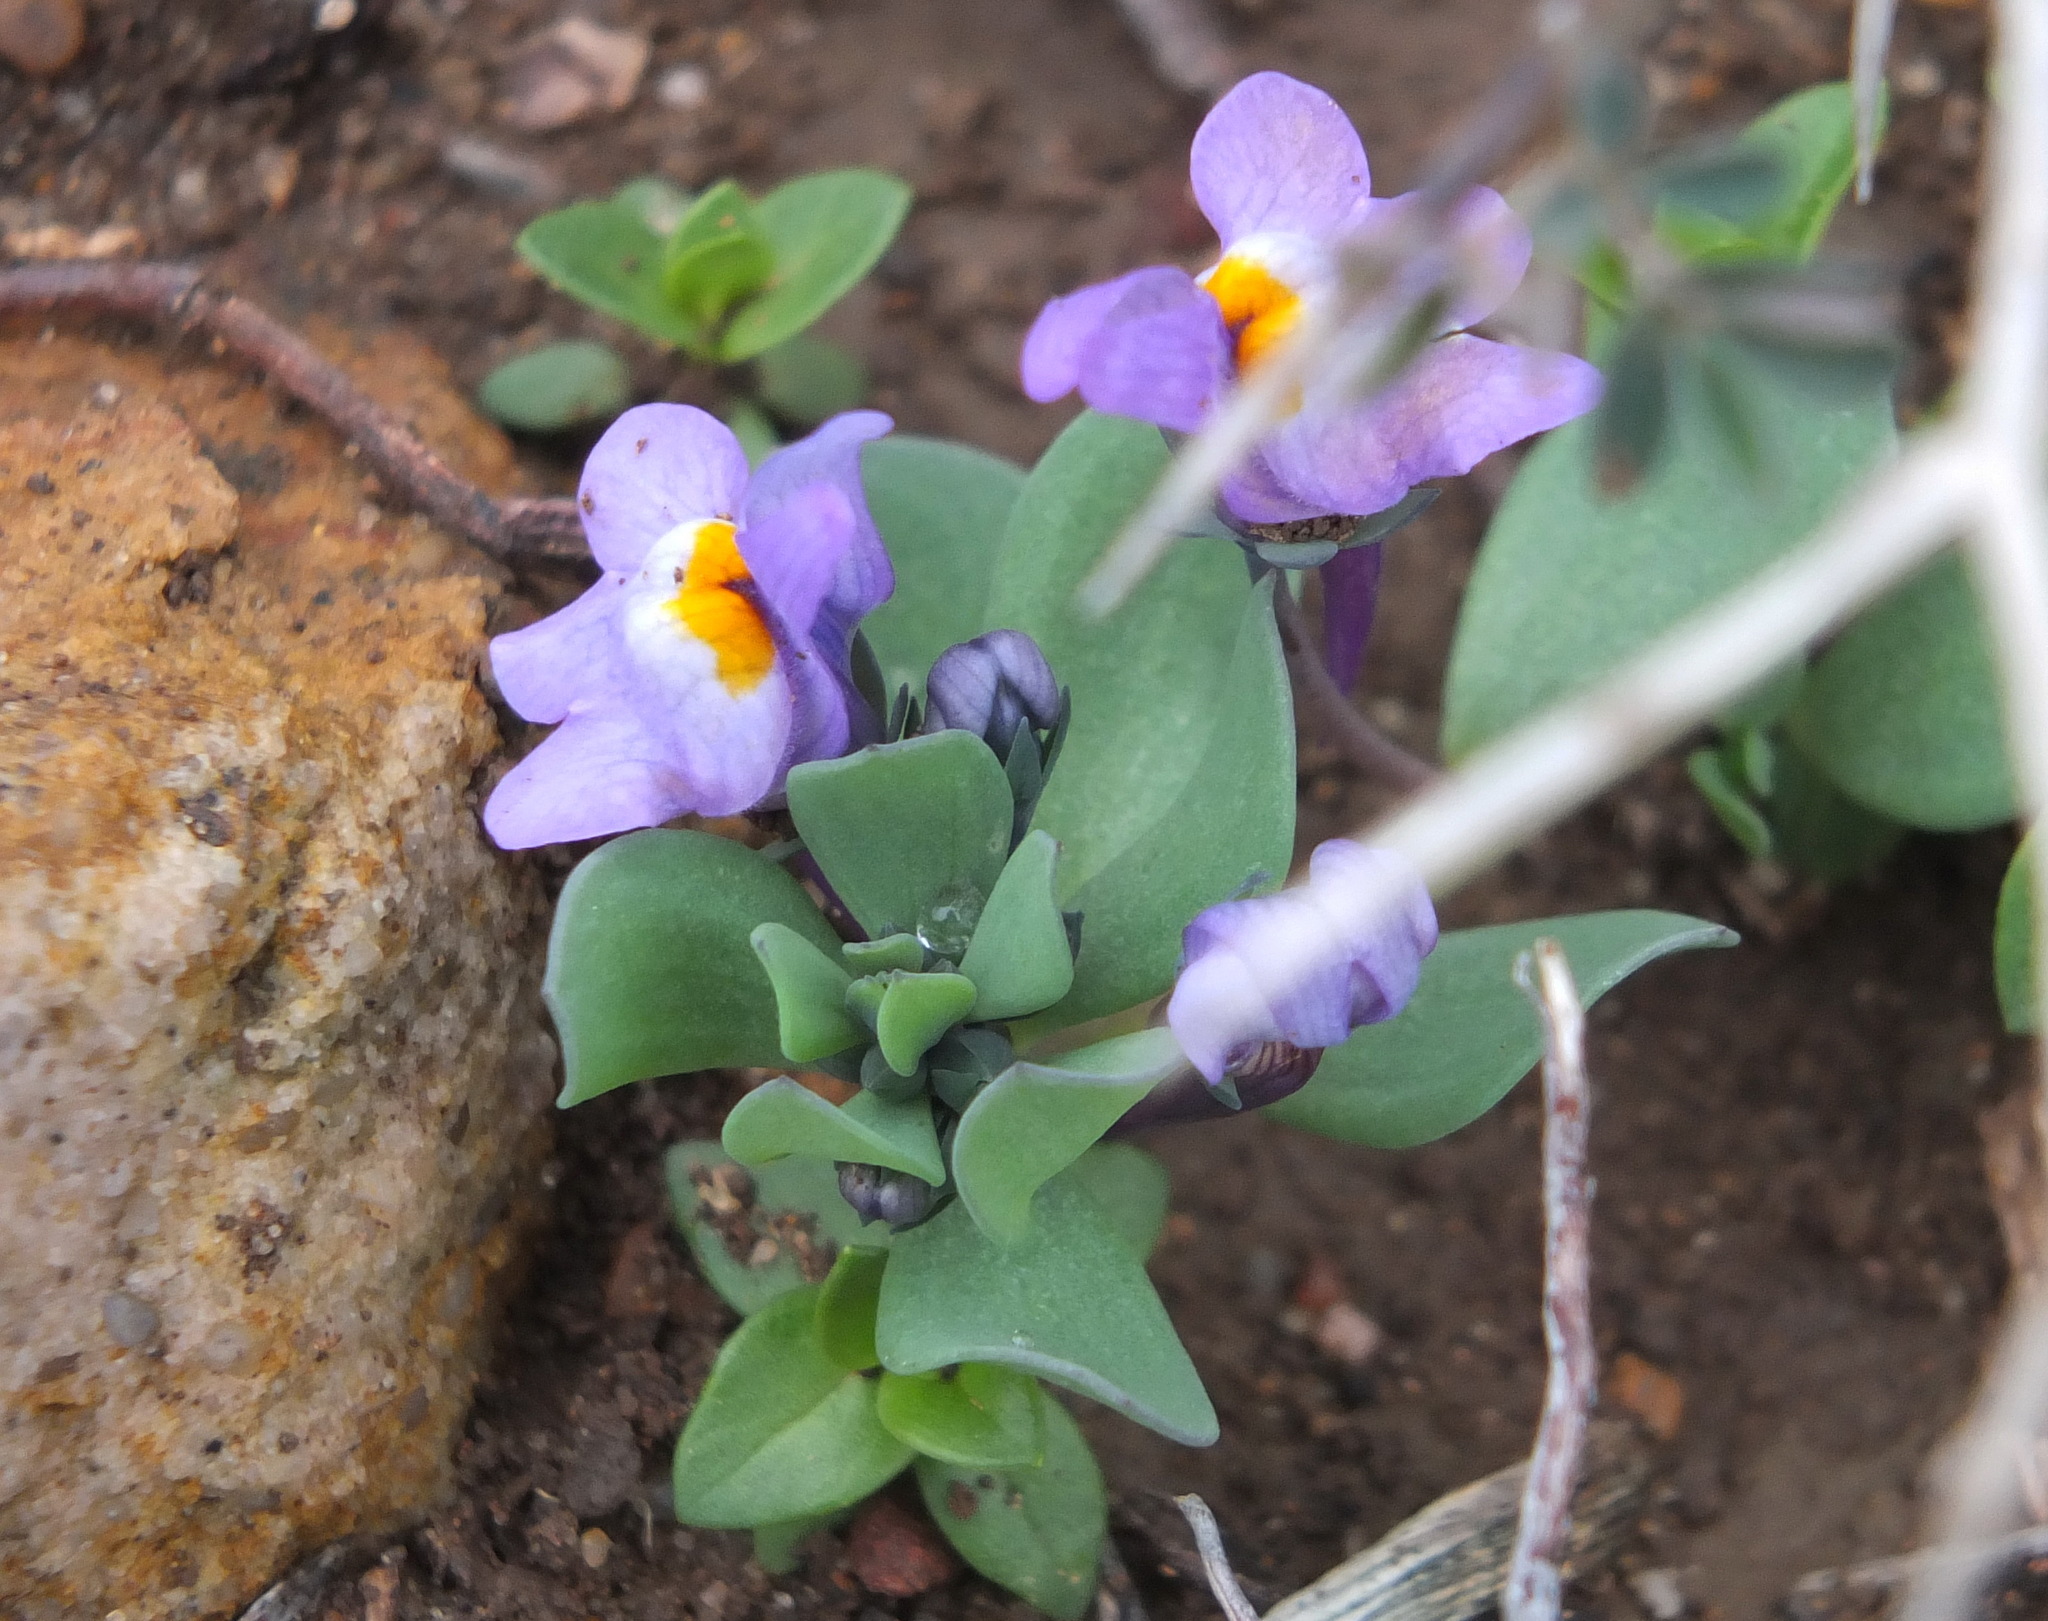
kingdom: Plantae
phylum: Tracheophyta
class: Magnoliopsida
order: Lamiales
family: Plantaginaceae
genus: Linaria
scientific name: Linaria reflexa
